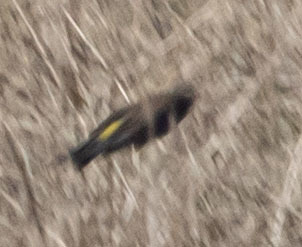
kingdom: Animalia
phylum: Chordata
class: Aves
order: Passeriformes
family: Parulidae
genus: Setophaga
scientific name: Setophaga coronata
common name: Myrtle warbler
